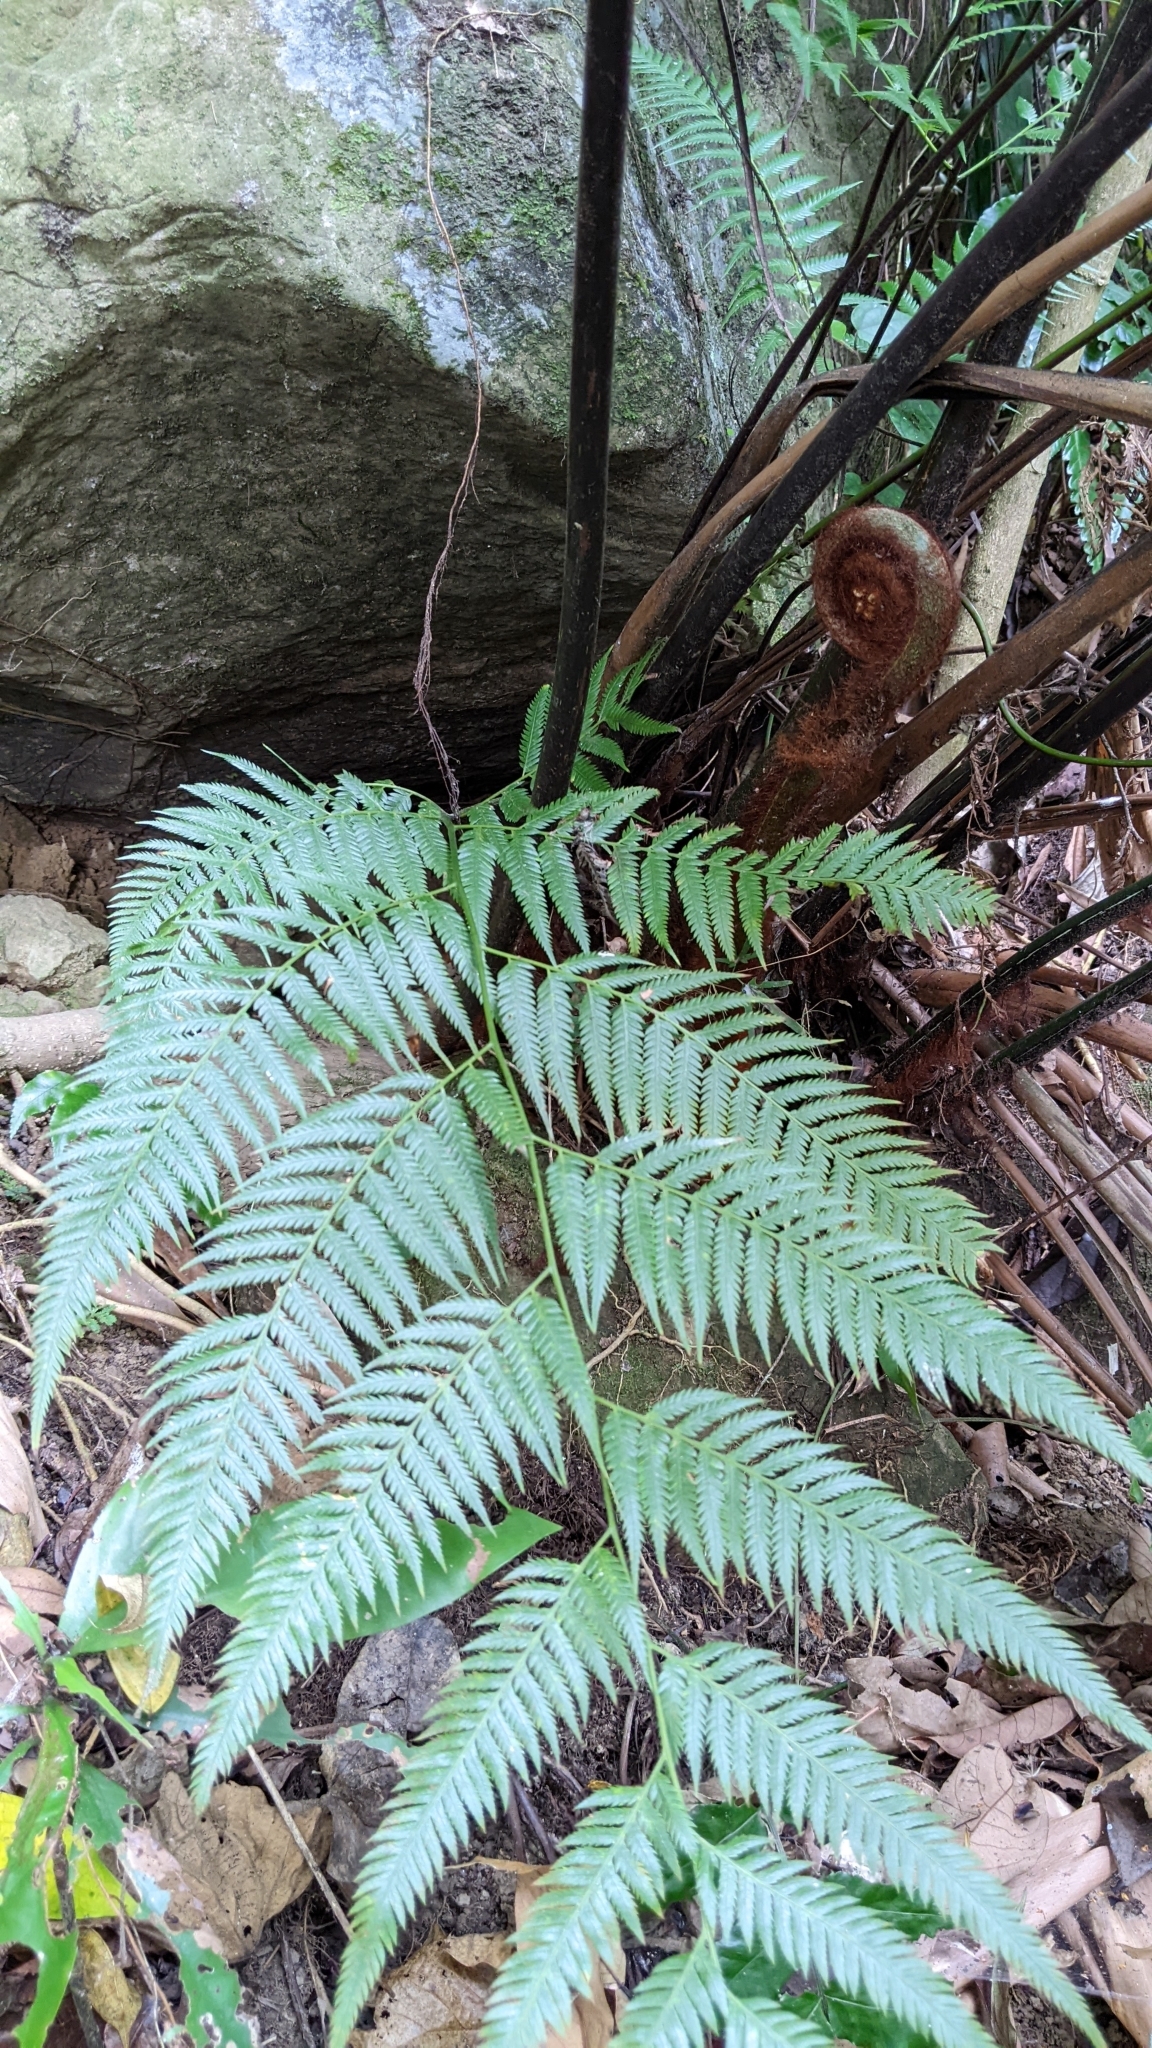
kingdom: Plantae
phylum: Tracheophyta
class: Polypodiopsida
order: Cyatheales
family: Cibotiaceae
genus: Cibotium
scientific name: Cibotium taiwanense
